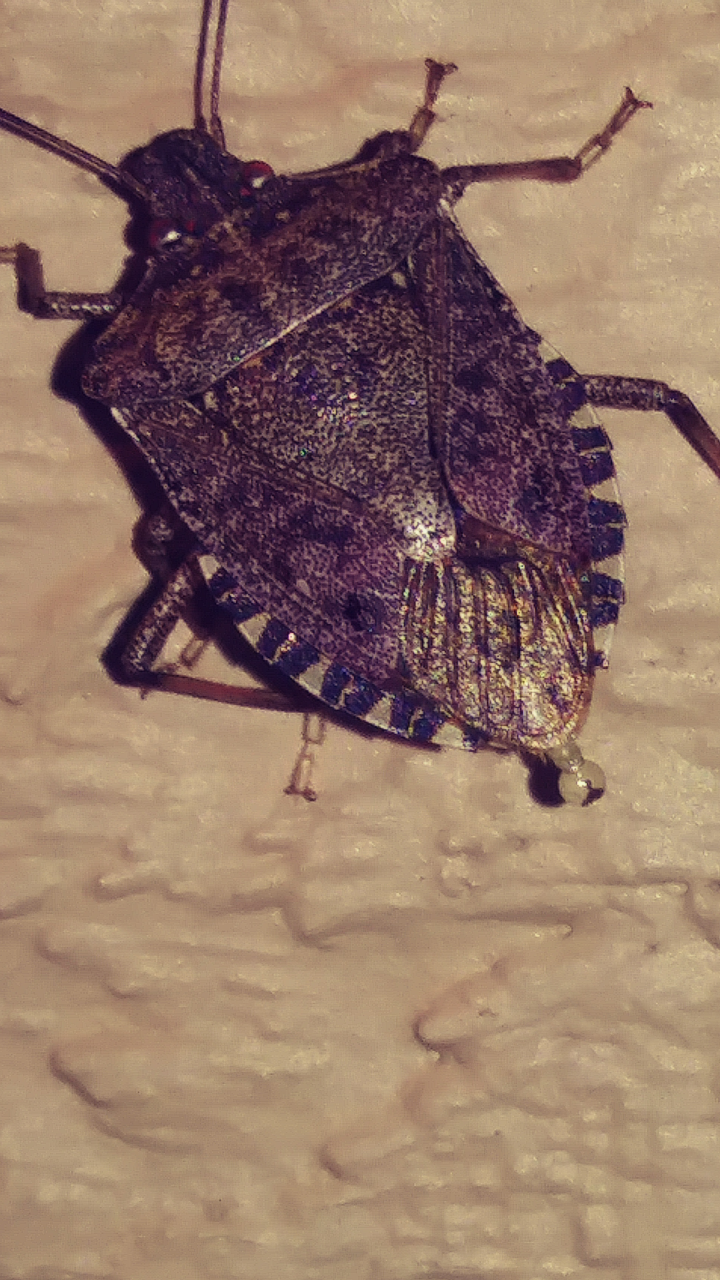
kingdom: Animalia
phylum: Arthropoda
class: Insecta
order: Hemiptera
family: Pentatomidae
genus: Halyomorpha
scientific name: Halyomorpha halys
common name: Brown marmorated stink bug
